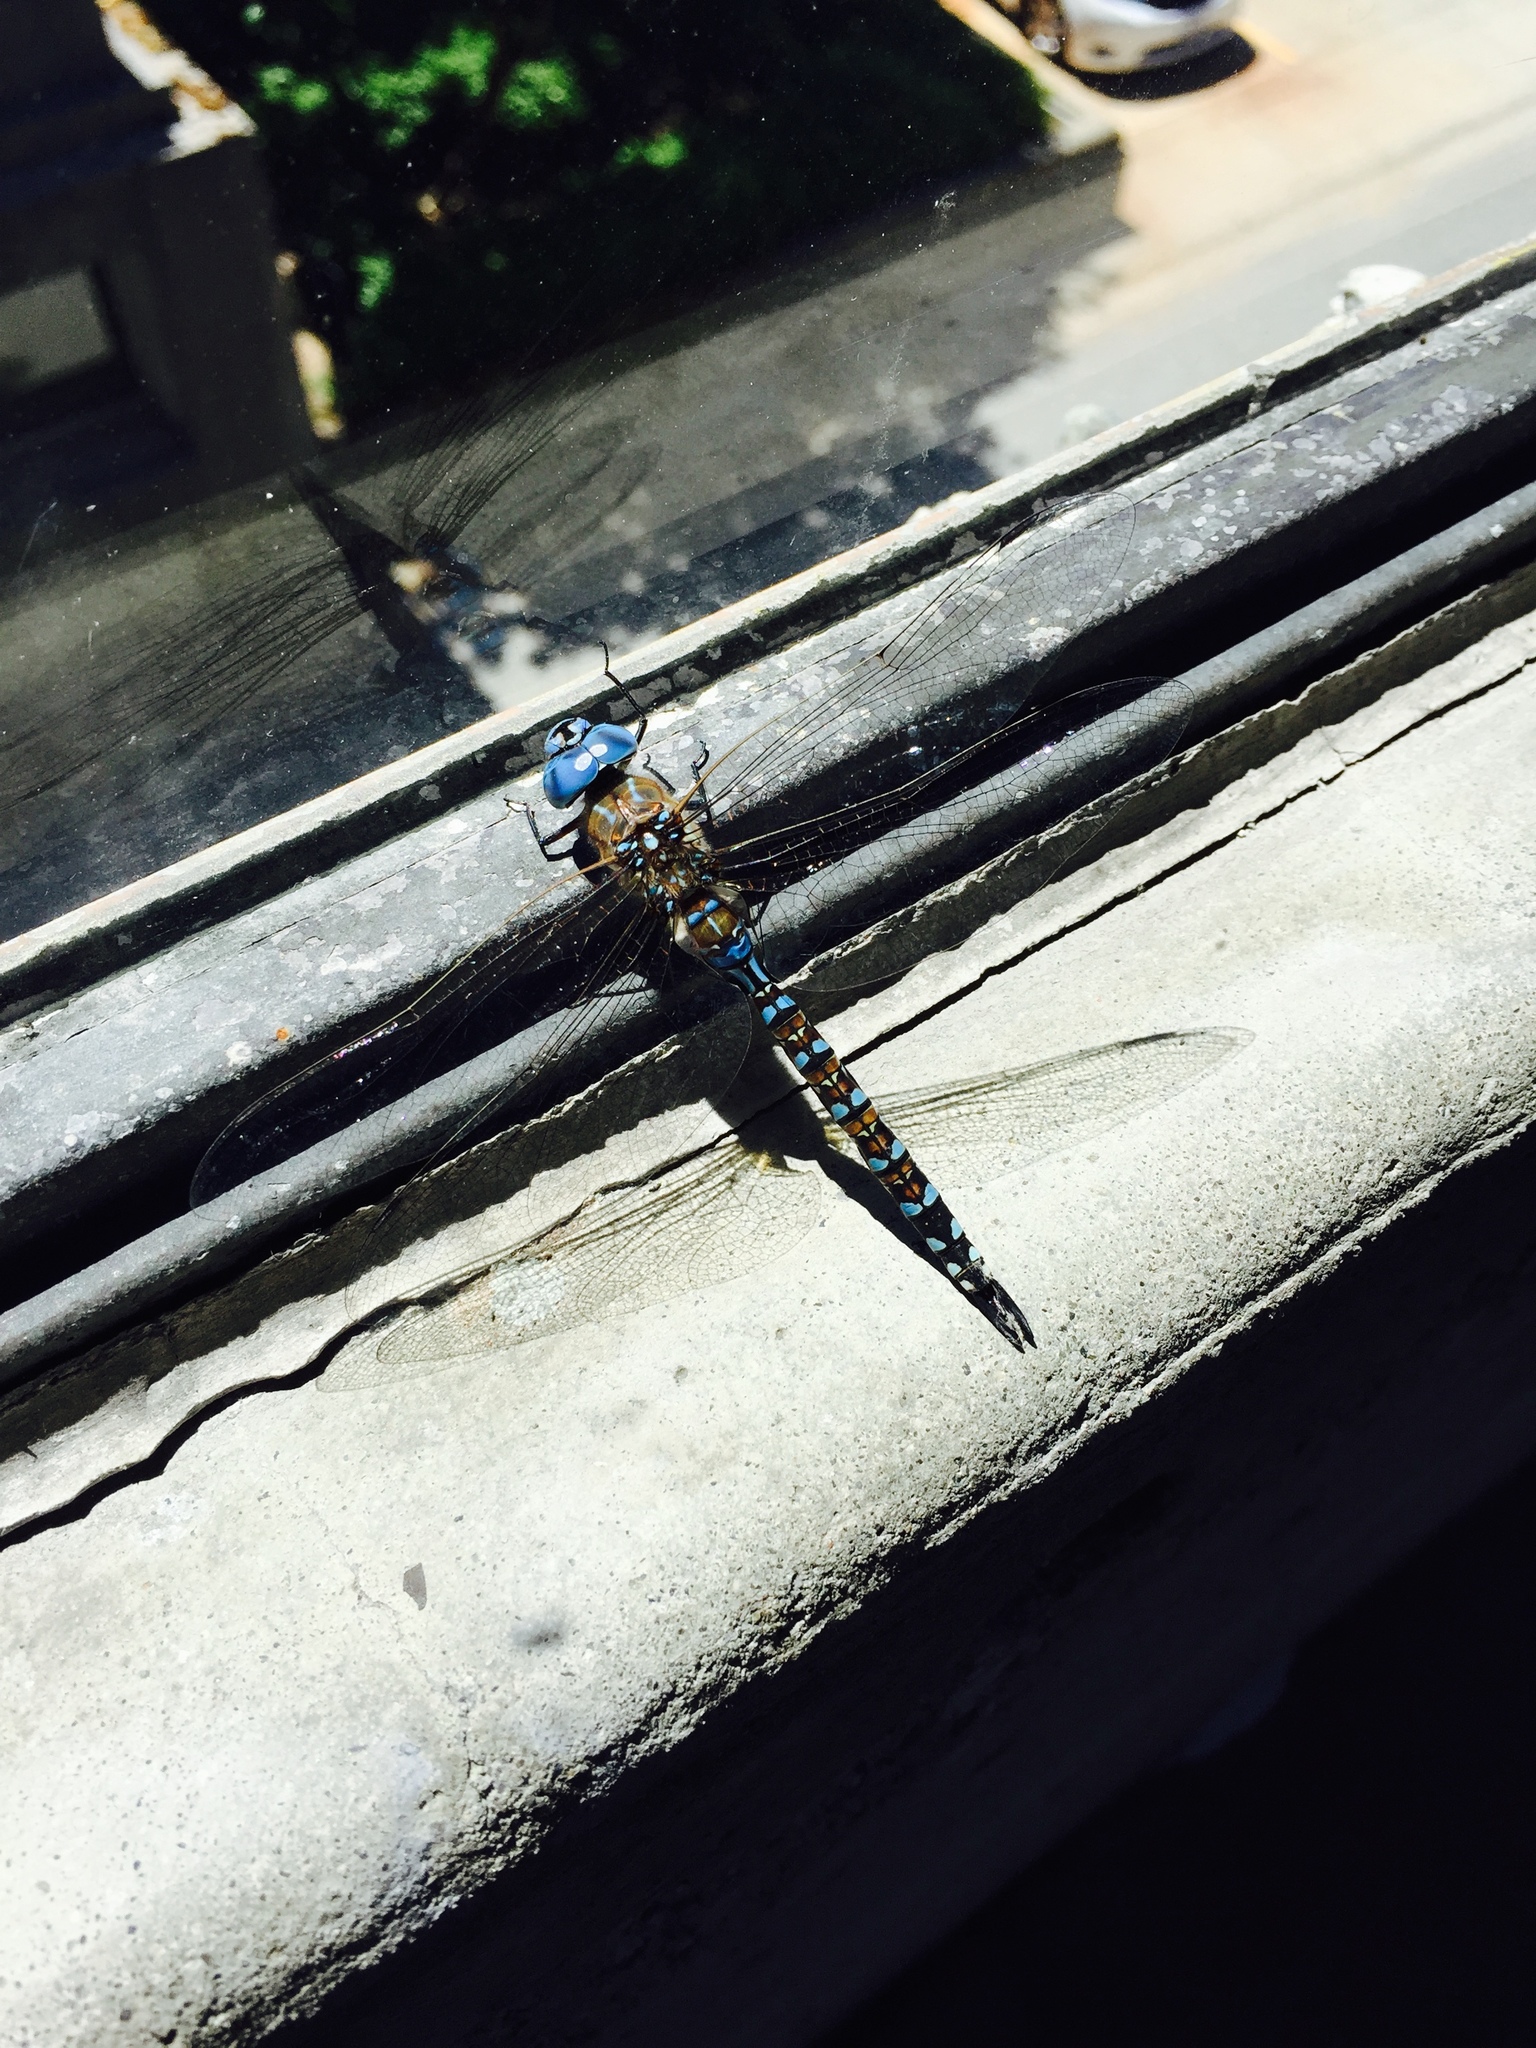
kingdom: Animalia
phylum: Arthropoda
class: Insecta
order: Odonata
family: Aeshnidae
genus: Rhionaeschna
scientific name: Rhionaeschna multicolor
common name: Blue-eyed darner
